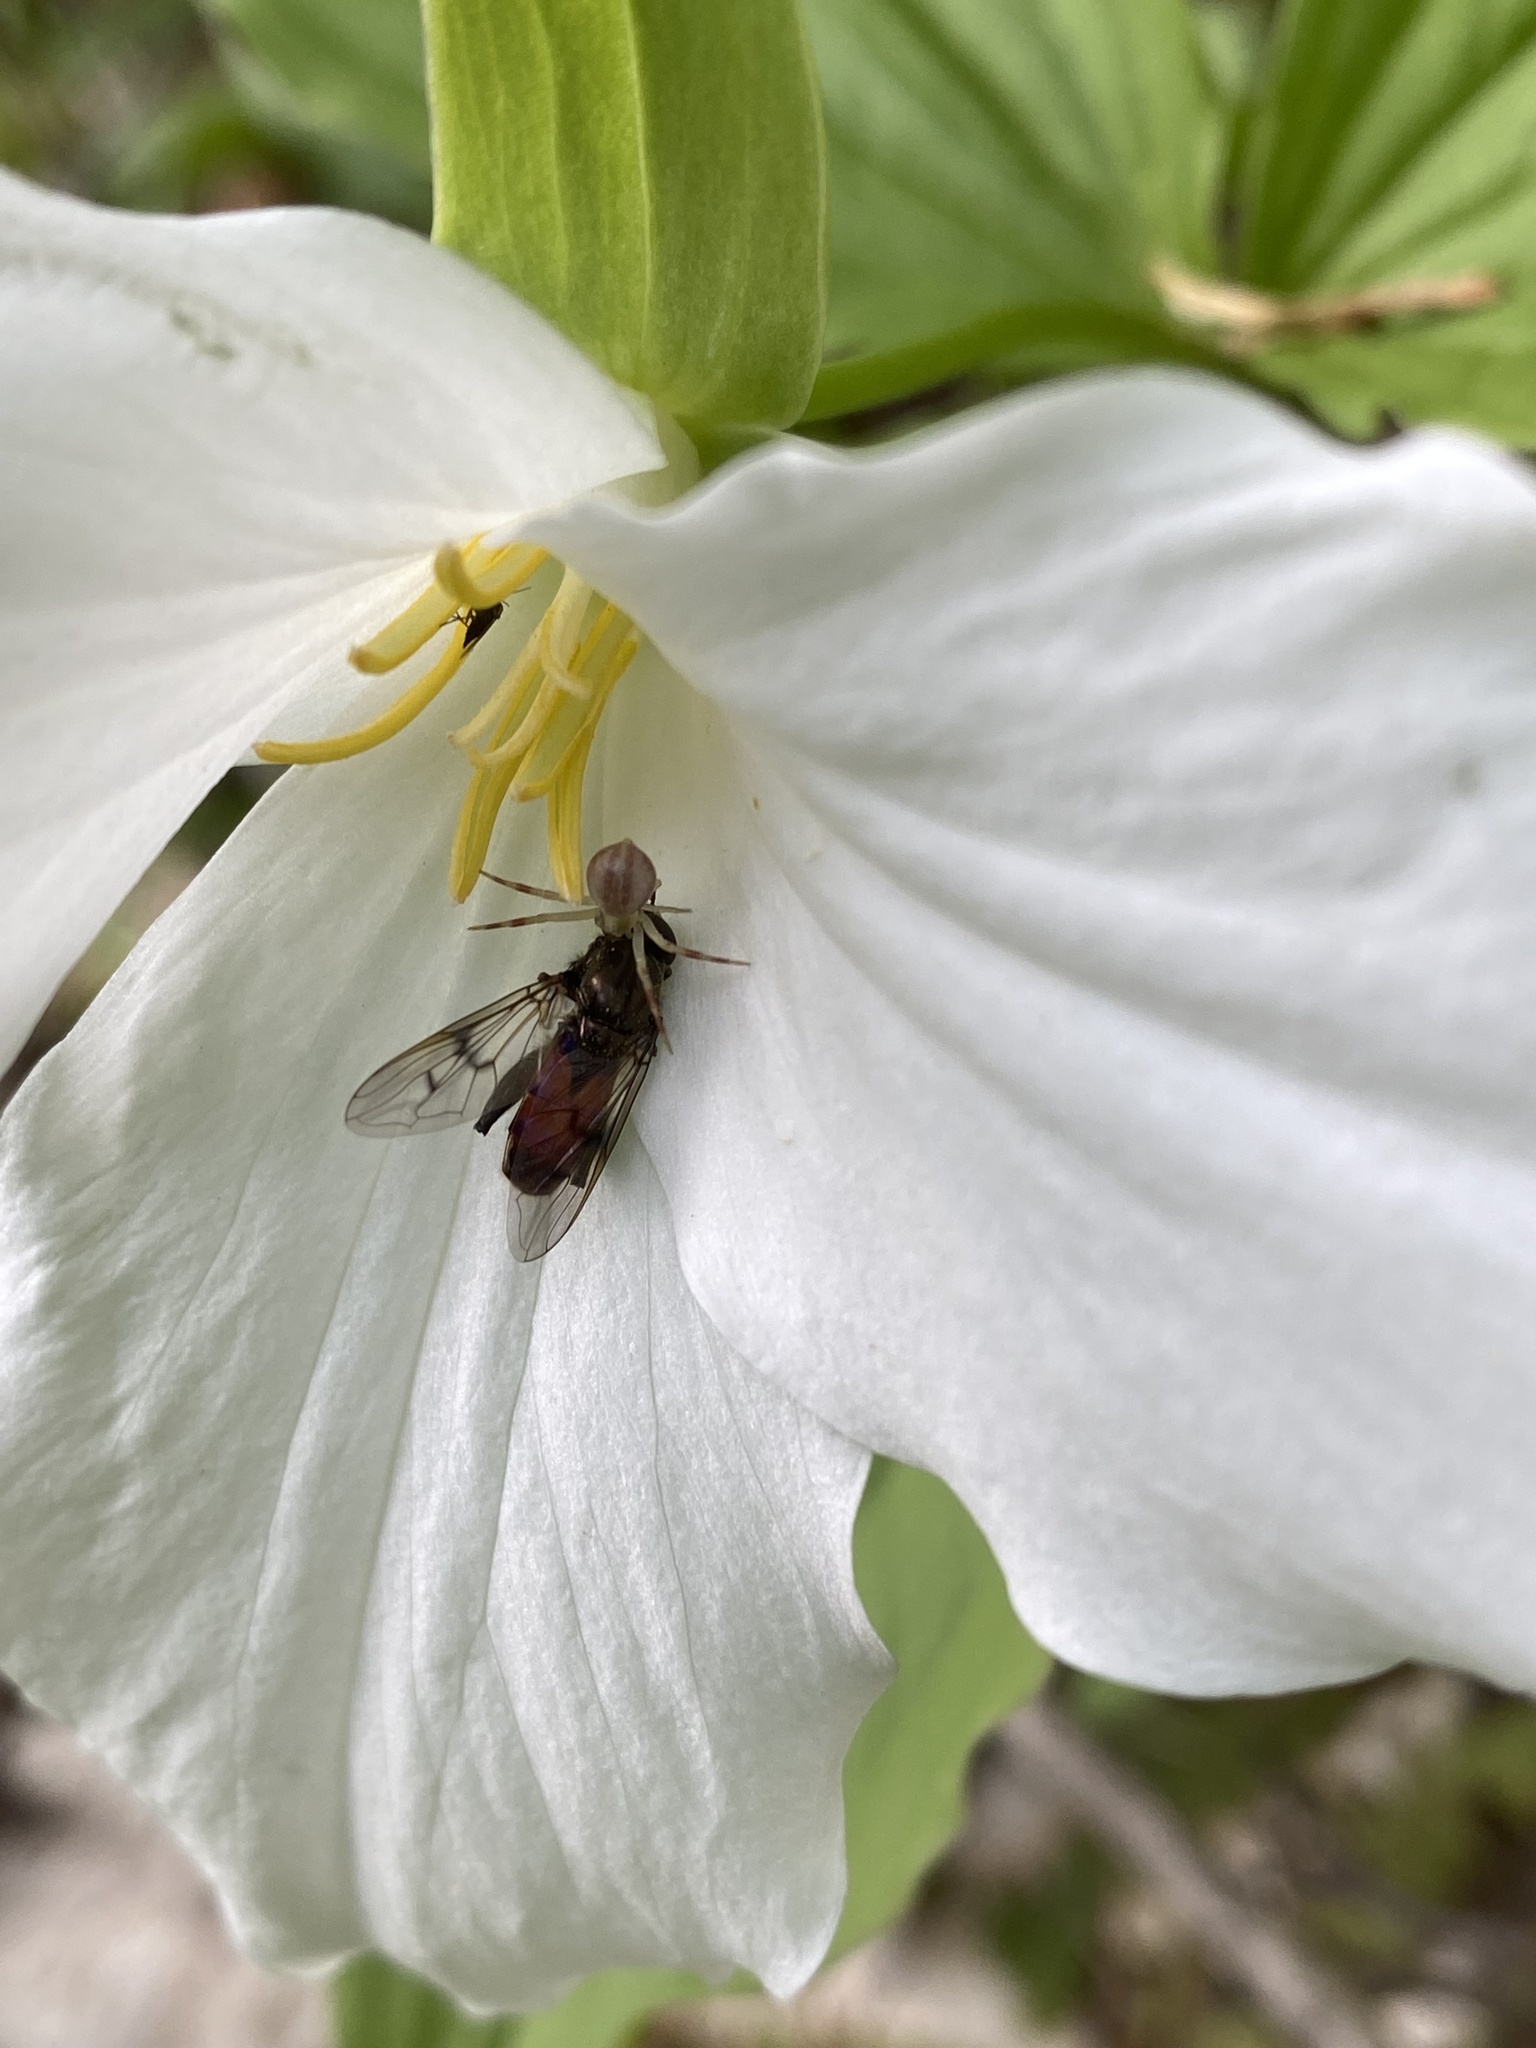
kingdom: Plantae
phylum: Tracheophyta
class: Liliopsida
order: Liliales
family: Melanthiaceae
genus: Trillium
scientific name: Trillium grandiflorum
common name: Great white trillium
